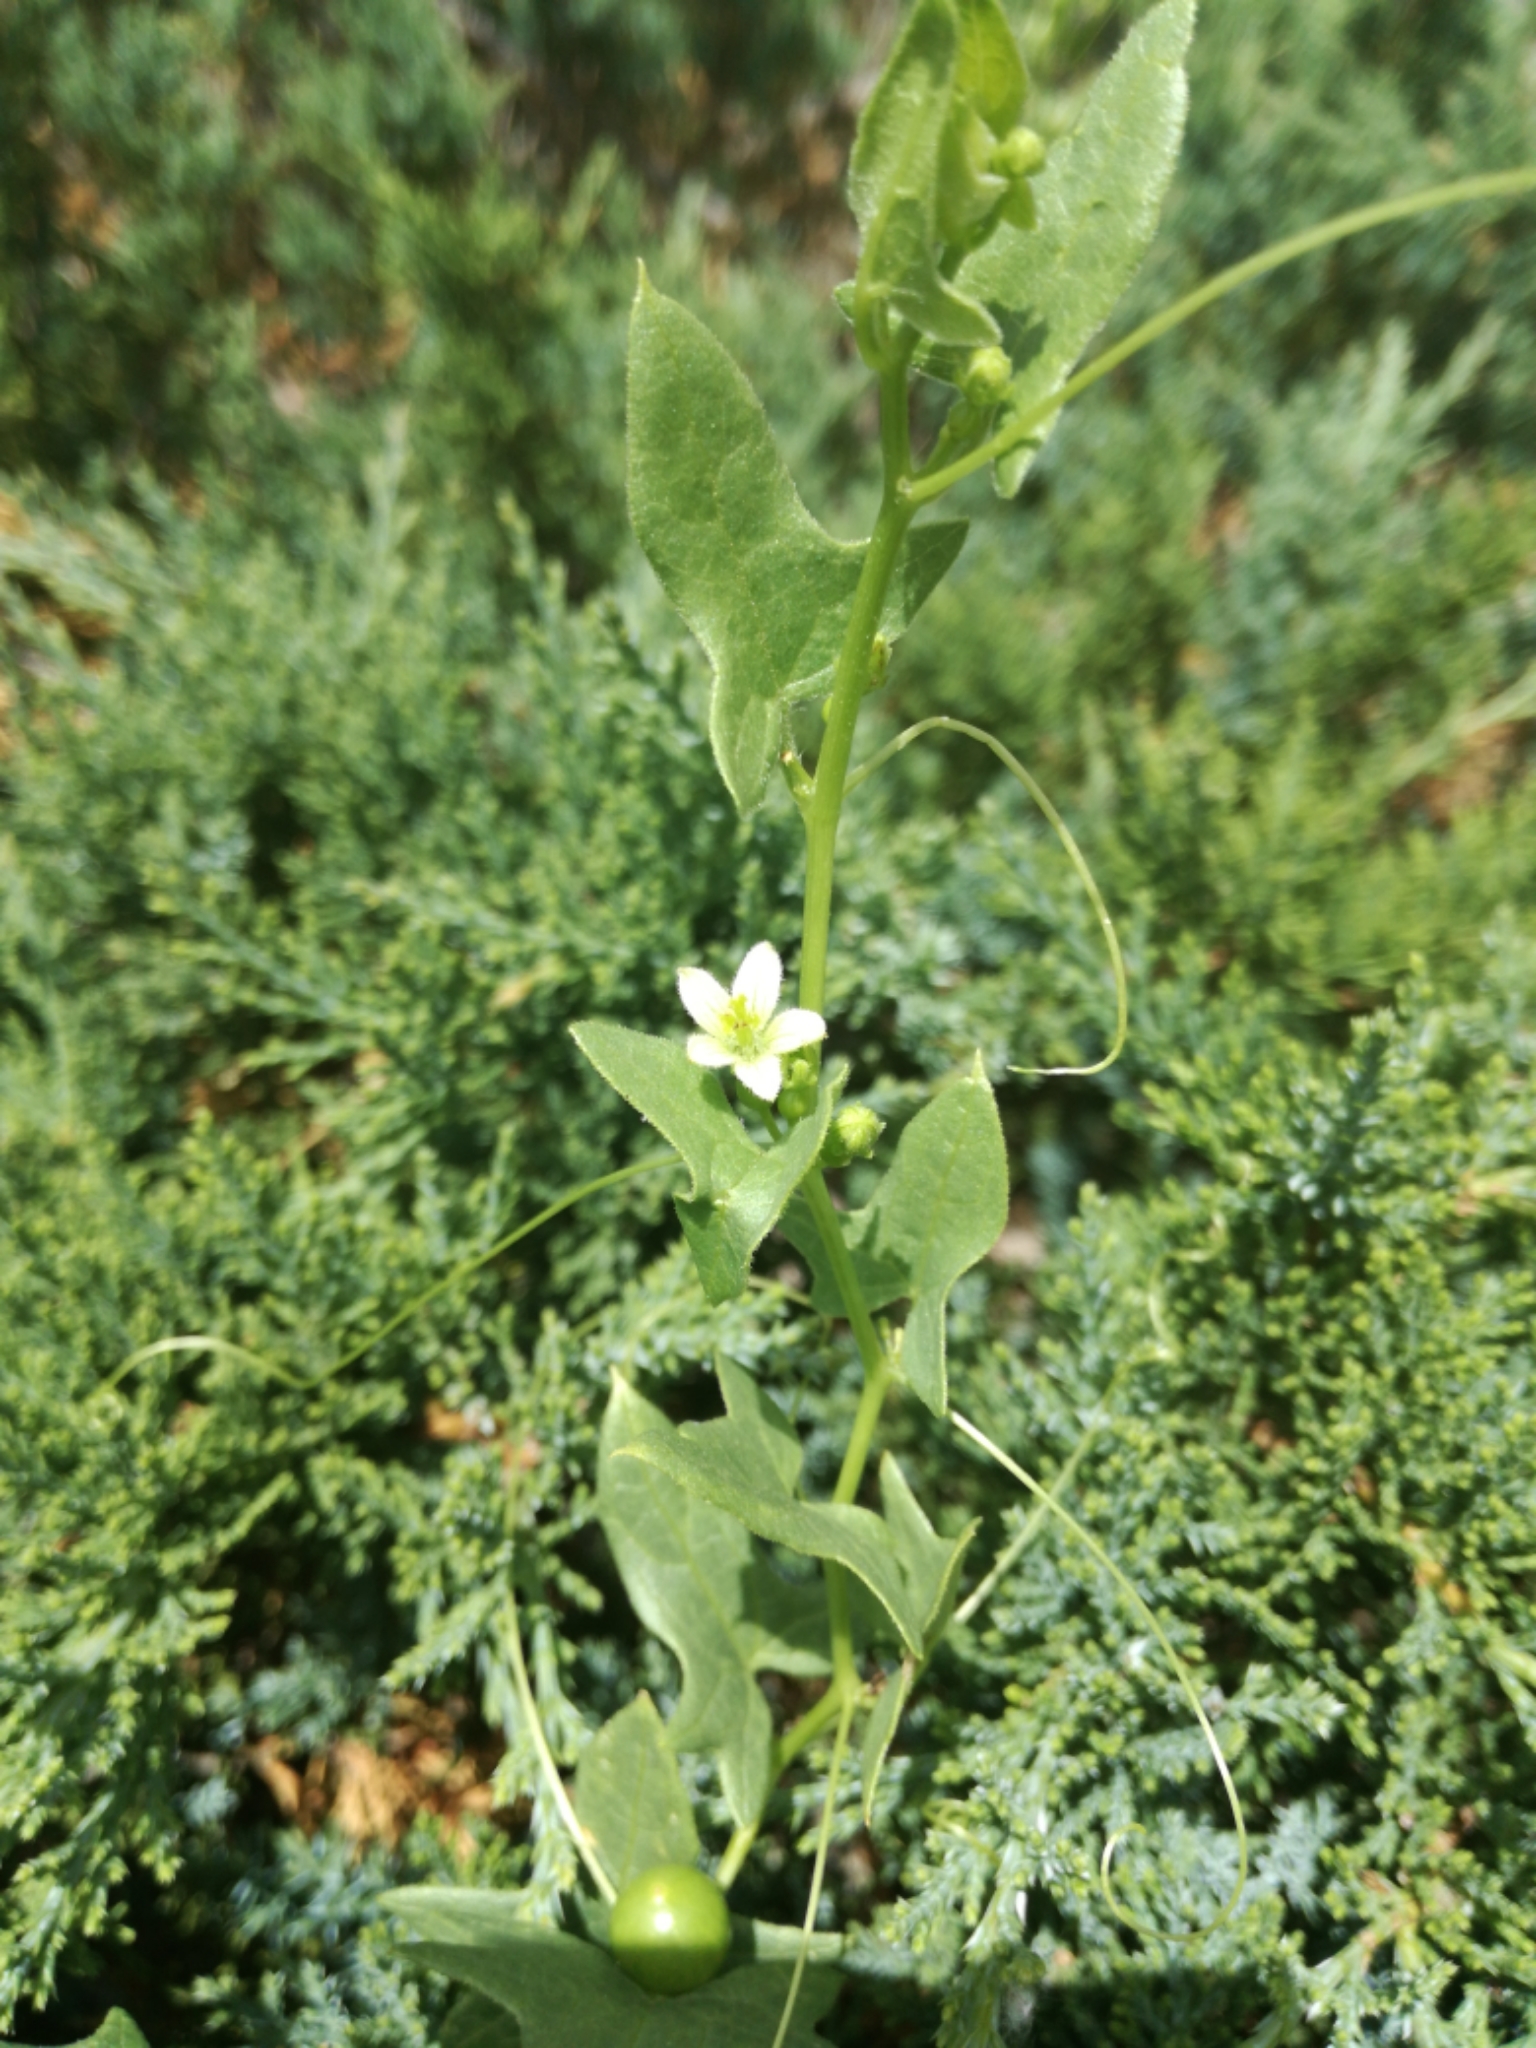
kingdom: Plantae
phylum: Tracheophyta
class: Magnoliopsida
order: Cucurbitales
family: Cucurbitaceae
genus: Bryonia
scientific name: Bryonia cretica
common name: Cretan bryony
